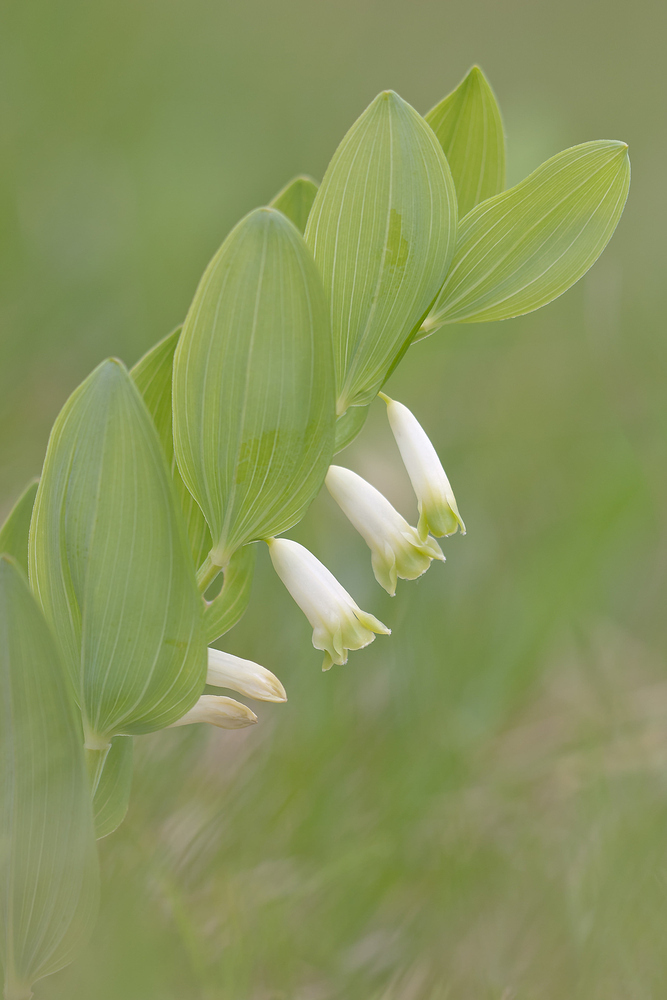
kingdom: Plantae
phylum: Tracheophyta
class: Liliopsida
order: Asparagales
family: Asparagaceae
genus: Polygonatum
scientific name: Polygonatum odoratum
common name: Angular solomon's-seal
